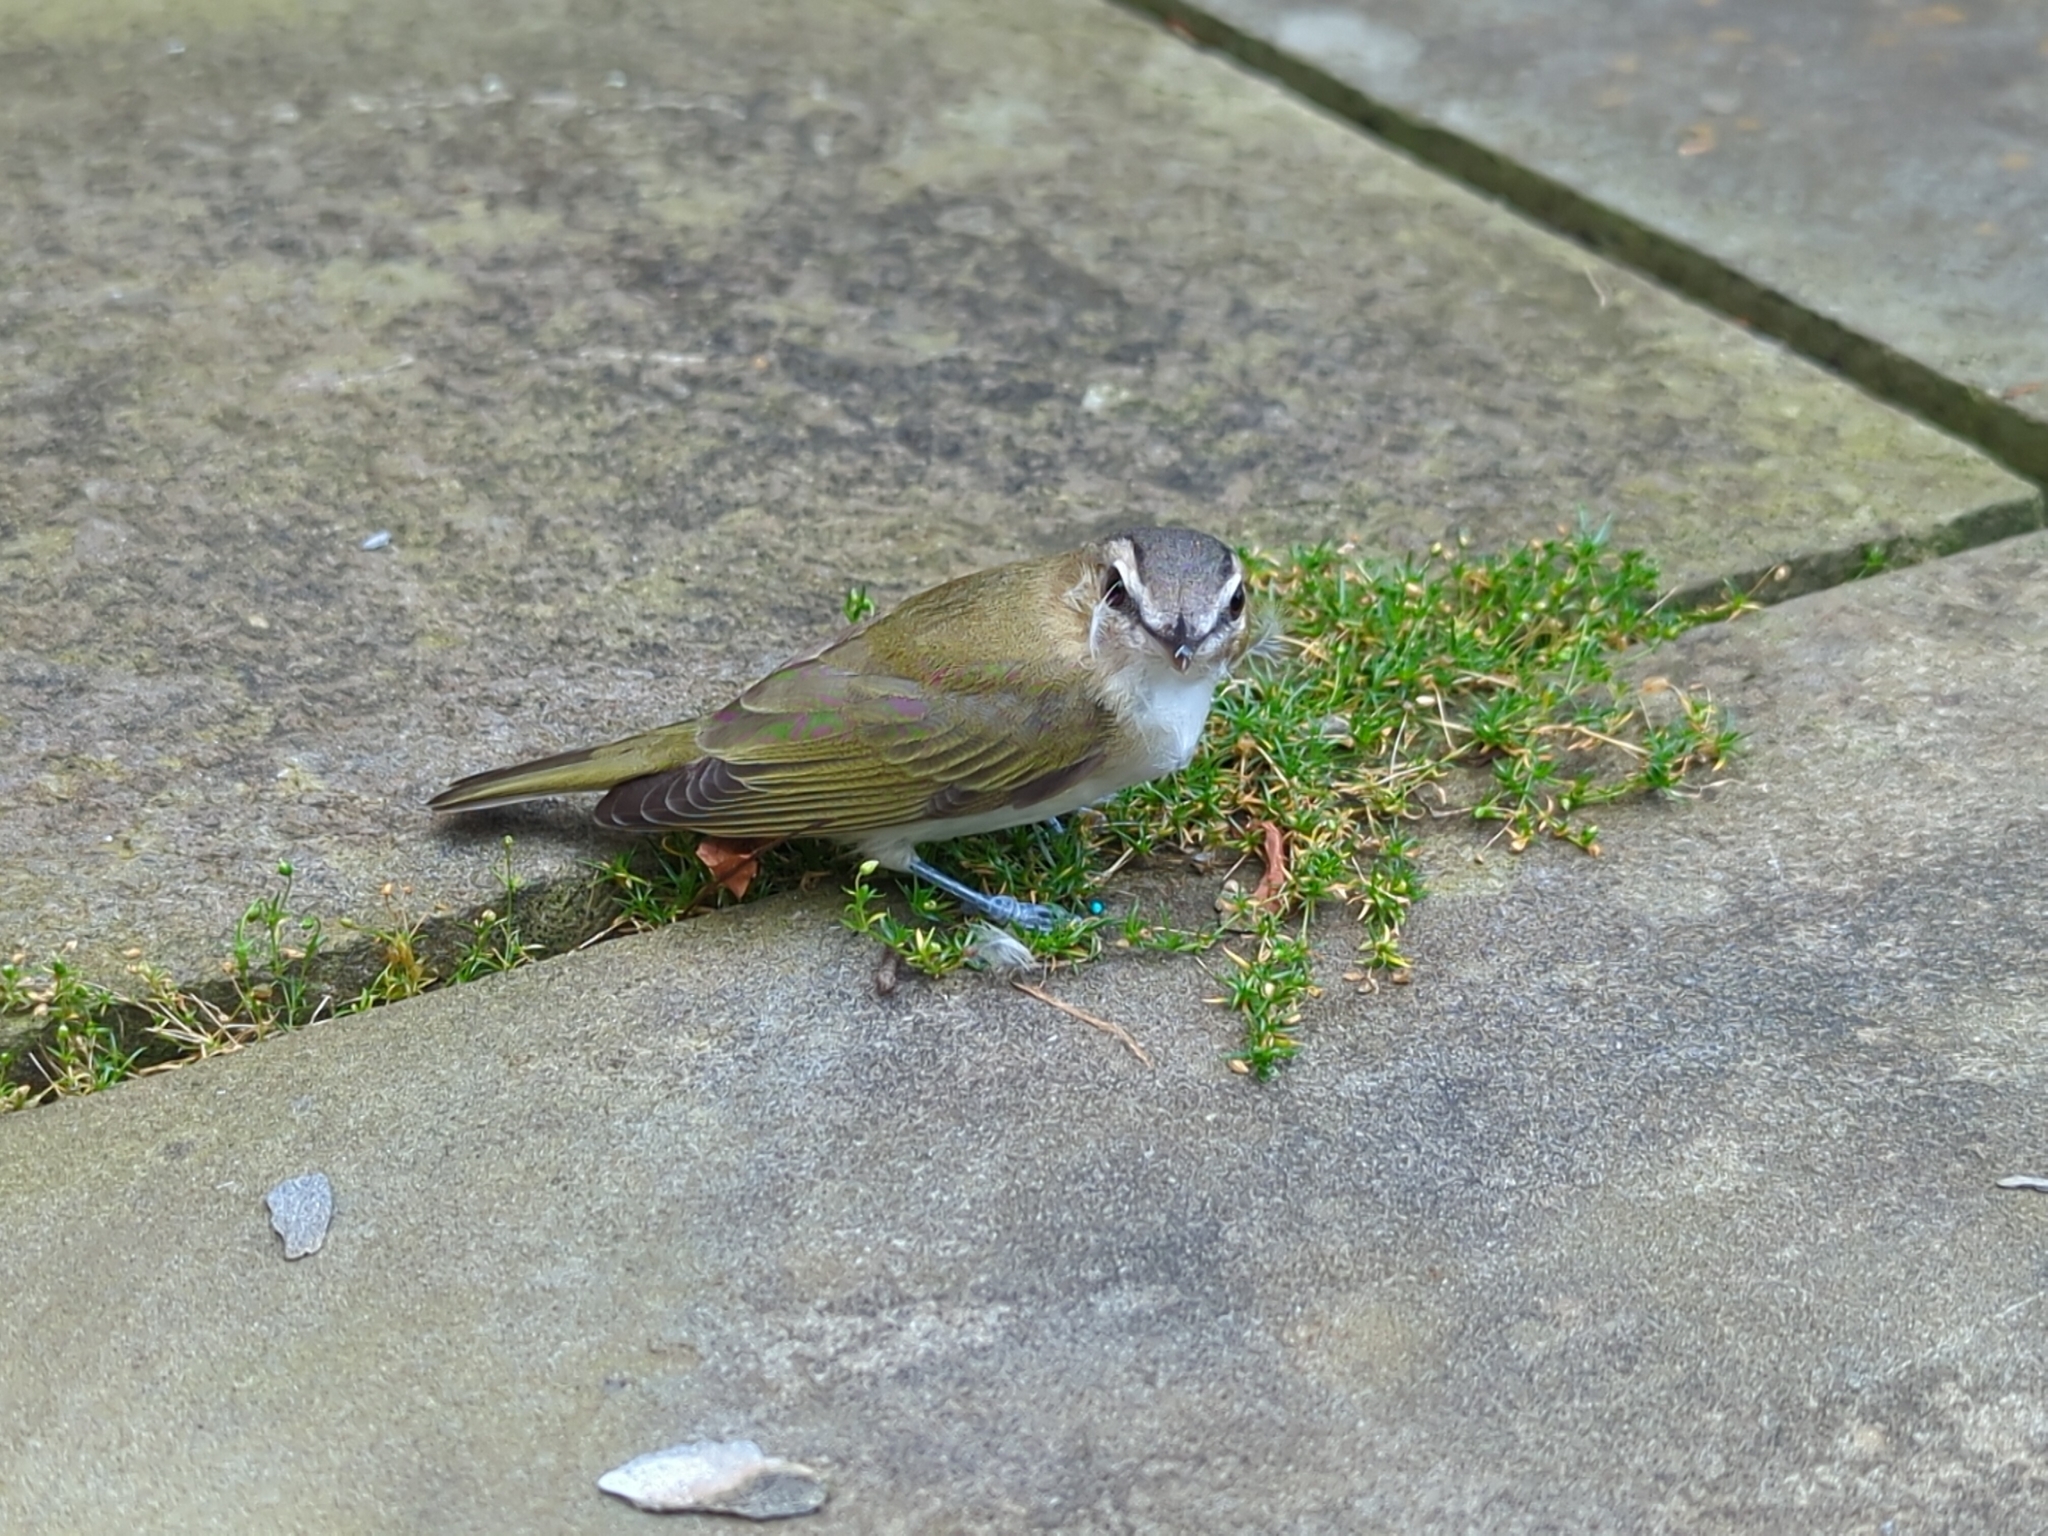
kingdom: Animalia
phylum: Chordata
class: Aves
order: Passeriformes
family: Vireonidae
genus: Vireo
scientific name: Vireo olivaceus
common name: Red-eyed vireo
